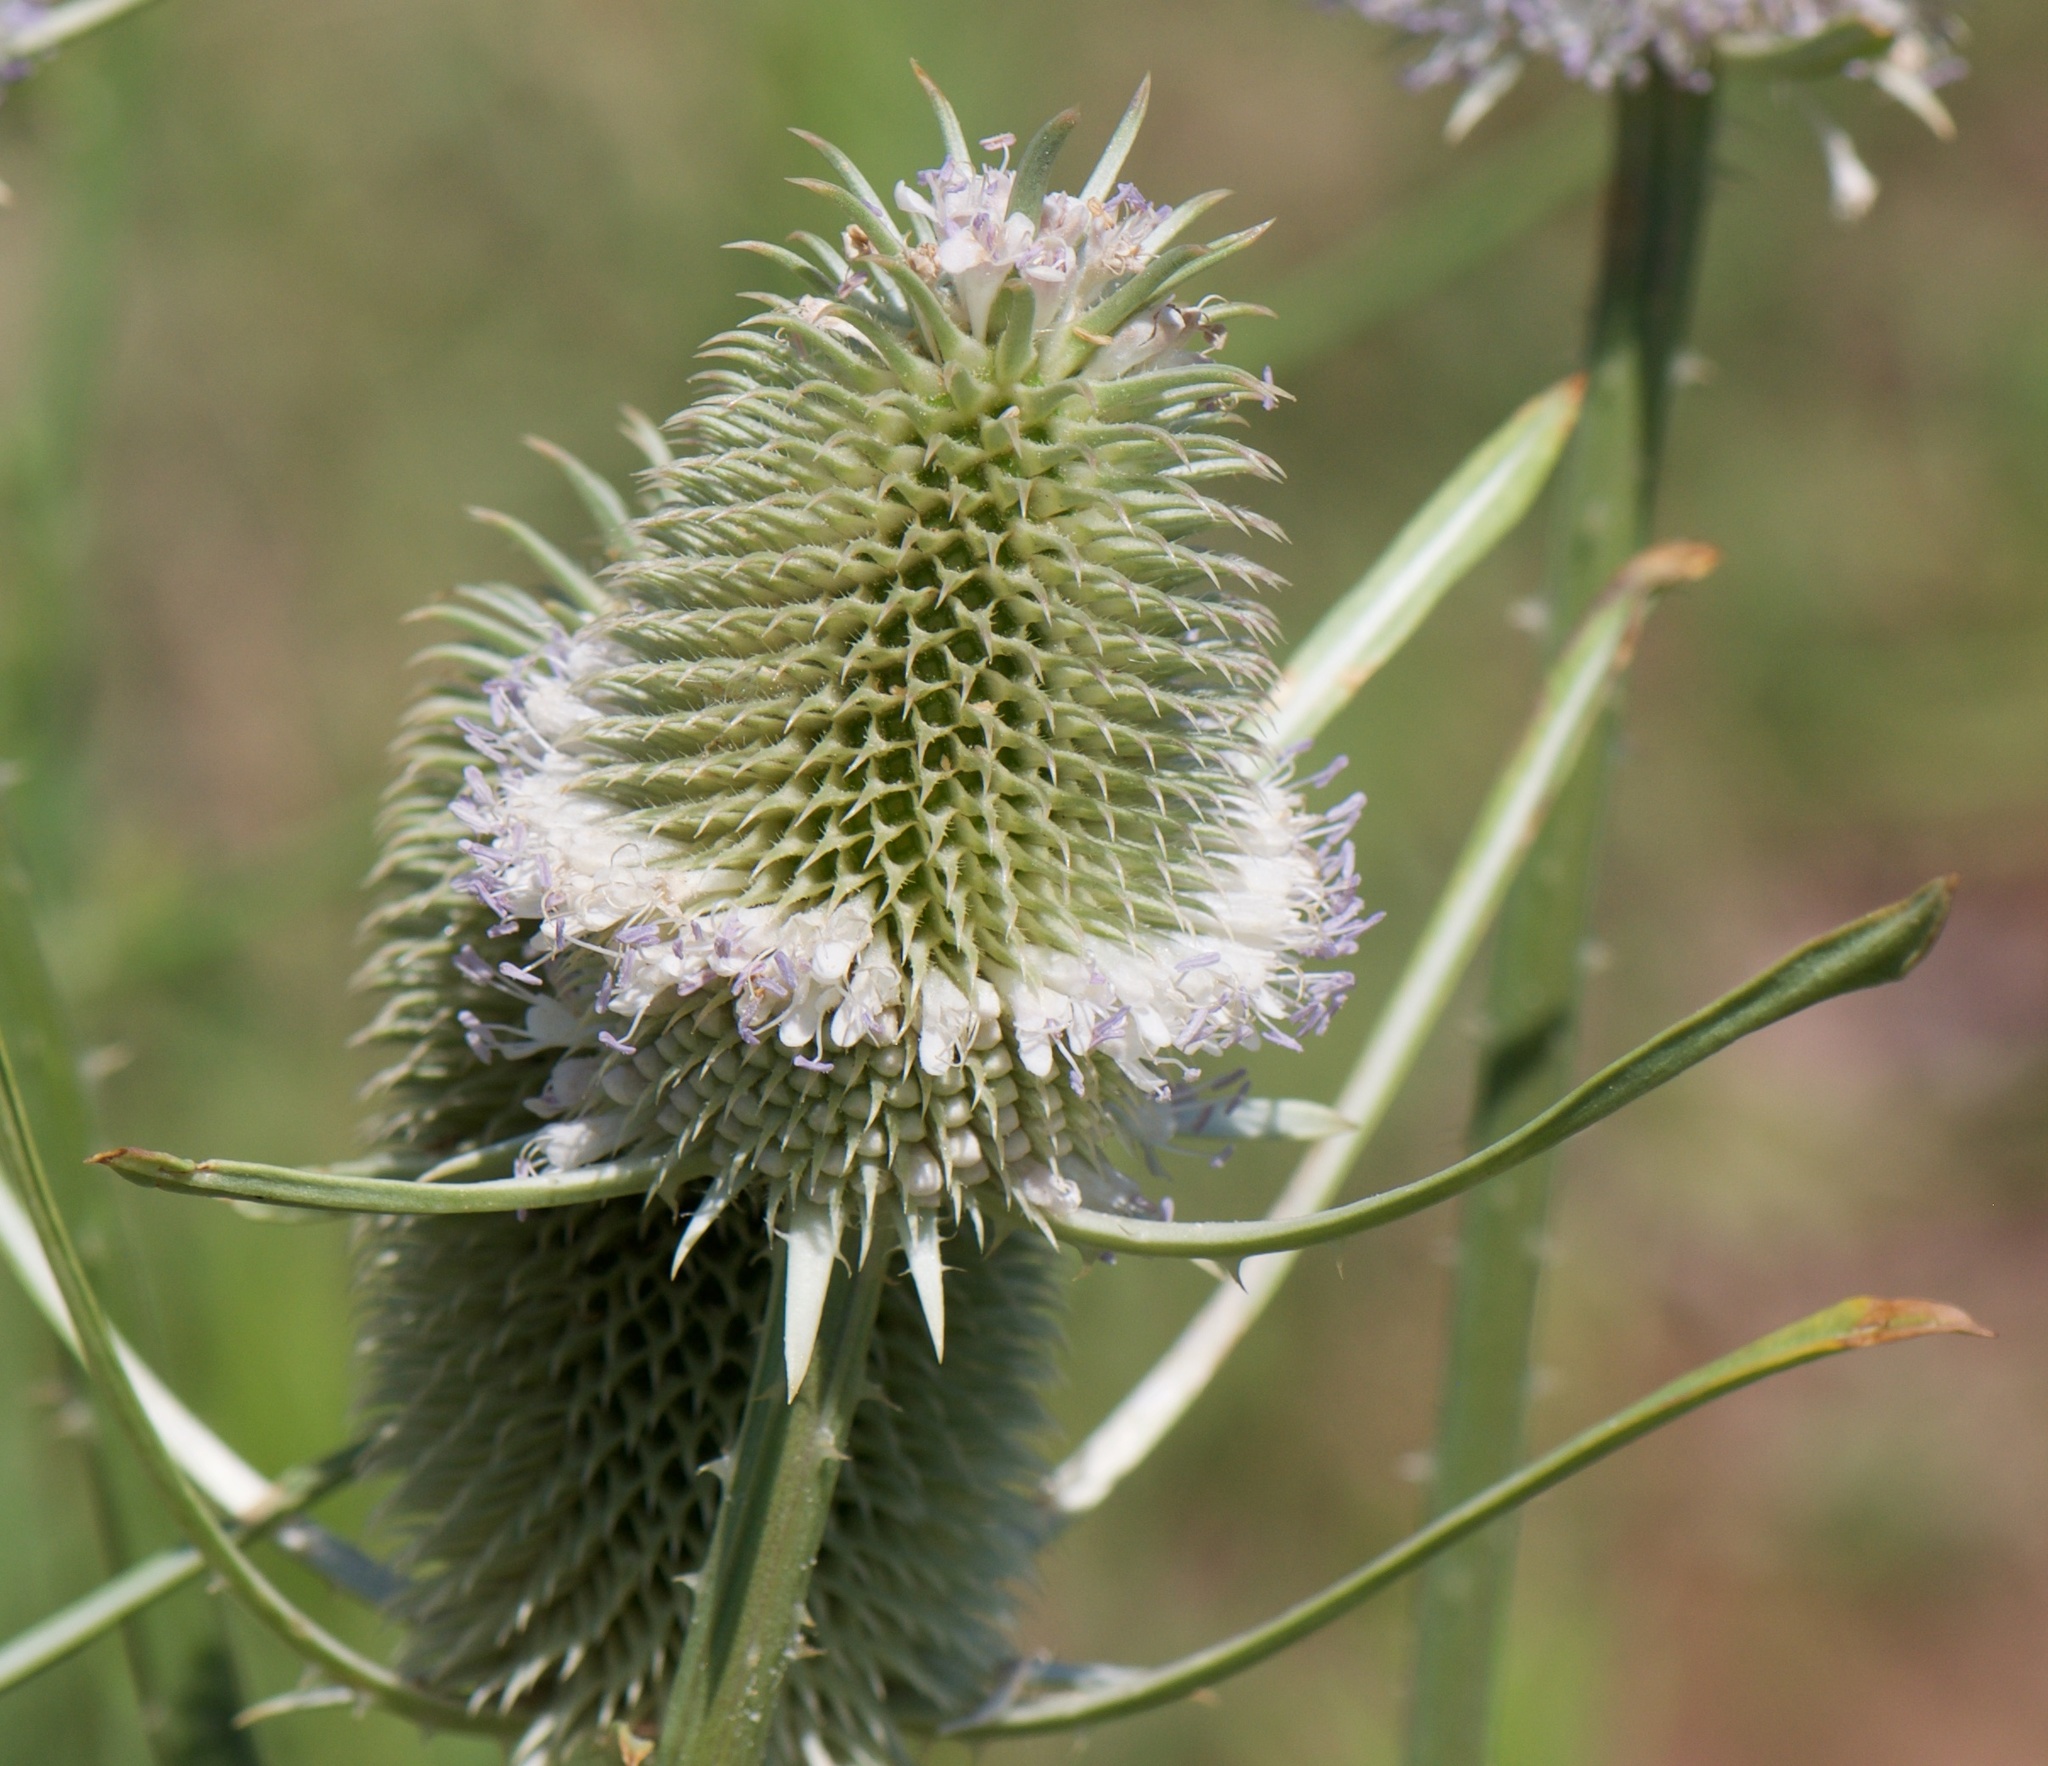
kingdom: Plantae
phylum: Tracheophyta
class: Magnoliopsida
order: Dipsacales
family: Caprifoliaceae
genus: Dipsacus
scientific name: Dipsacus sativus
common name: Fuller's teasel
